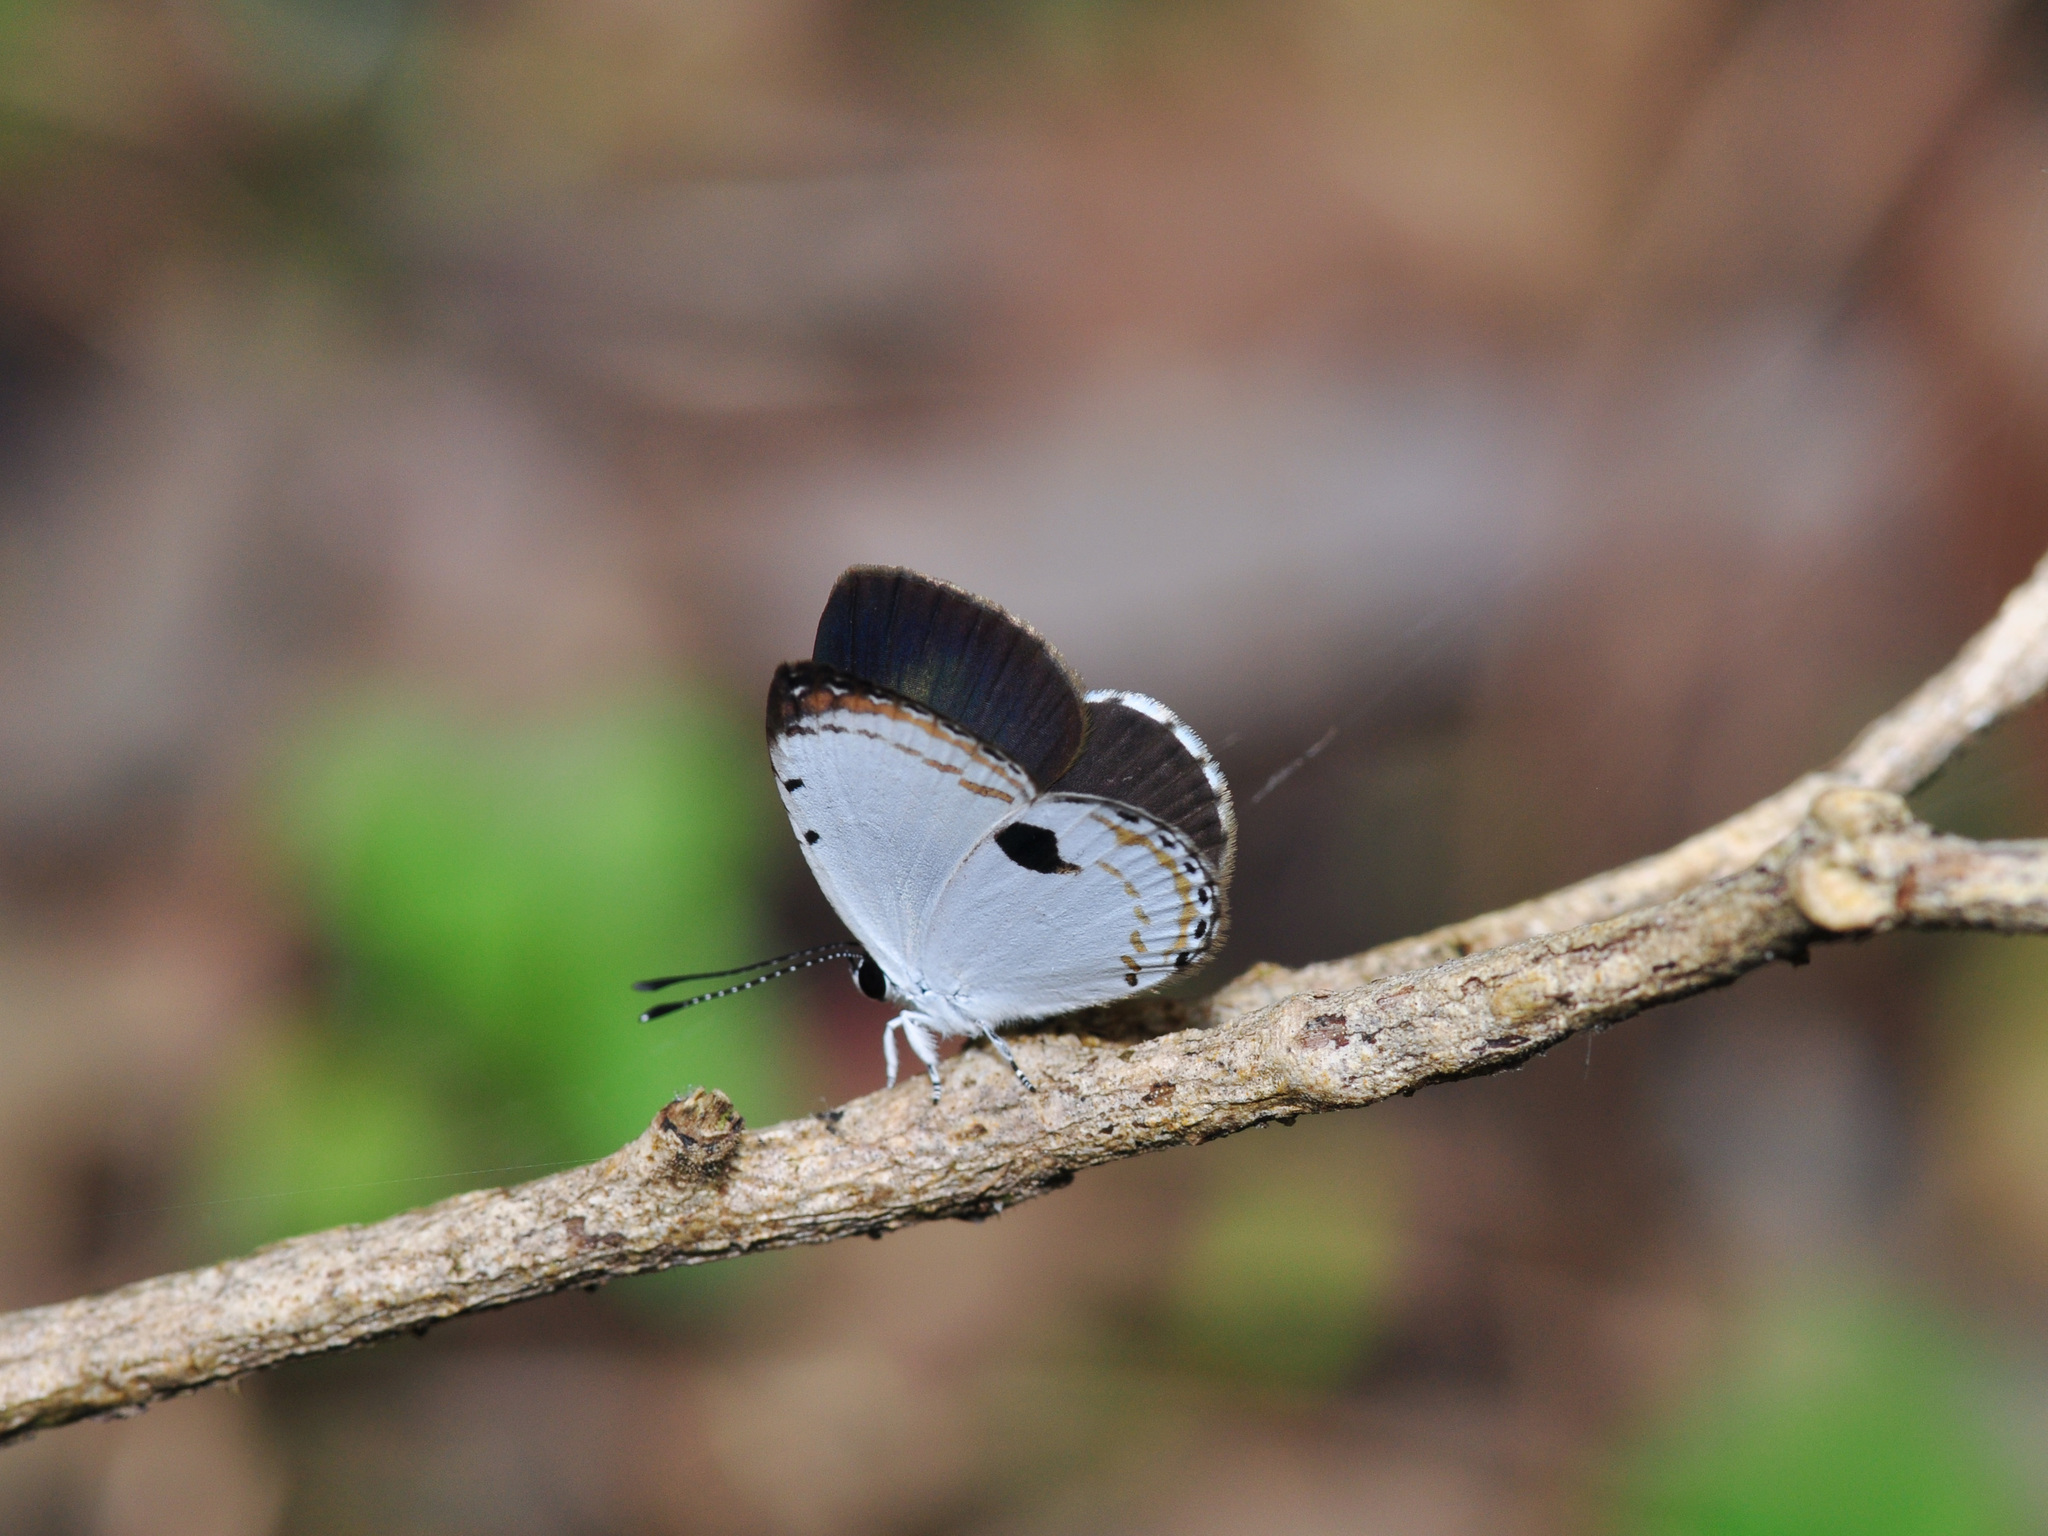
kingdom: Animalia
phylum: Arthropoda
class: Insecta
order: Lepidoptera
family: Lycaenidae
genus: Pithecops
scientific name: Pithecops corvus
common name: Forest quaker
